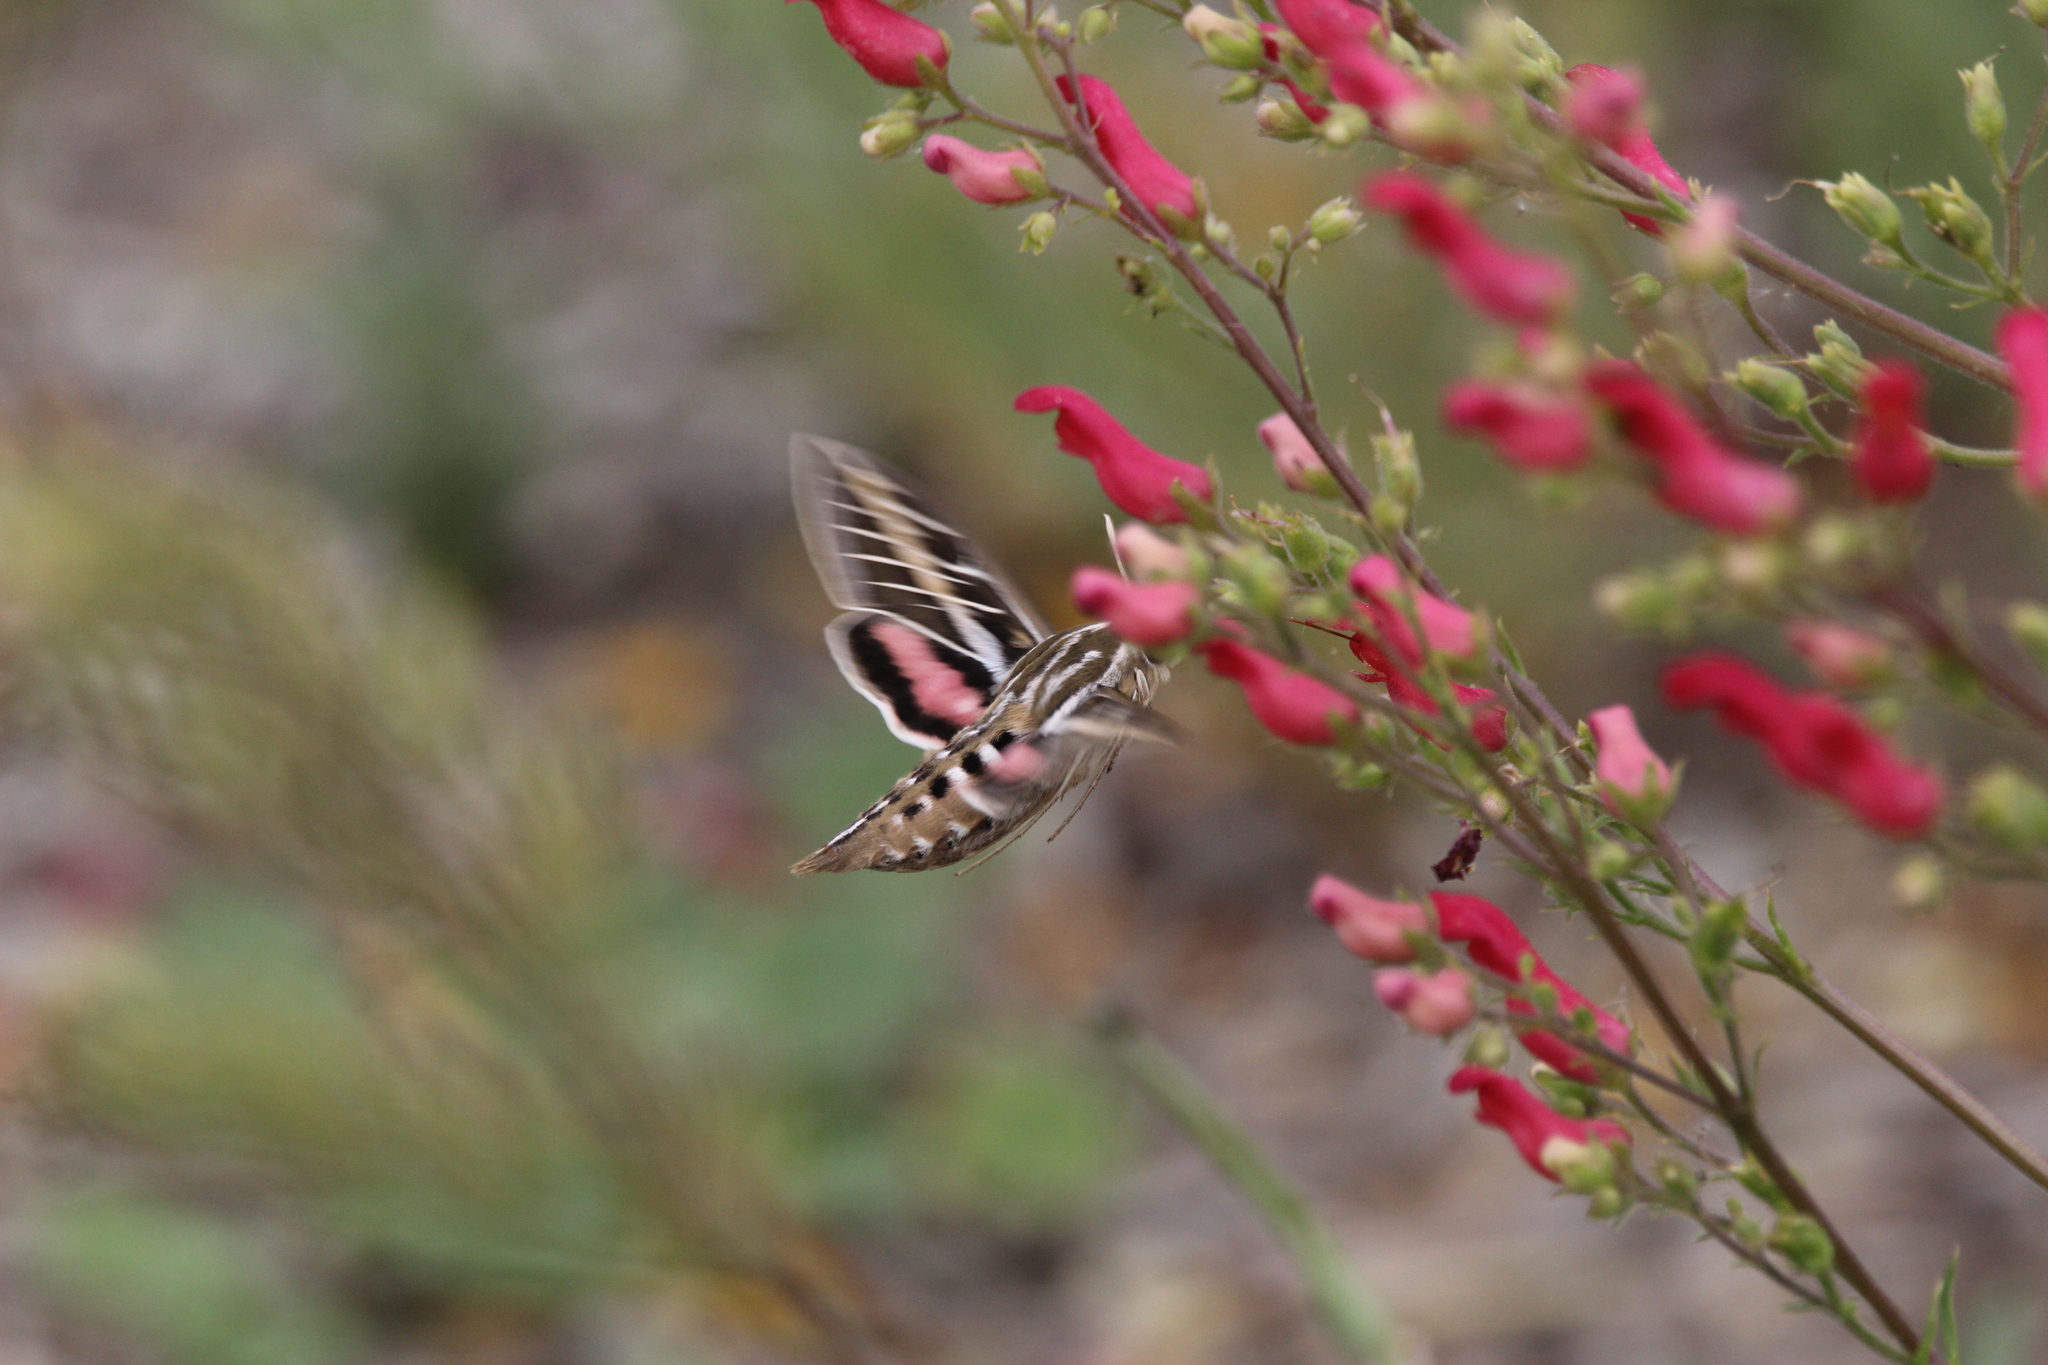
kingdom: Animalia
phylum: Arthropoda
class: Insecta
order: Lepidoptera
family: Sphingidae
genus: Hyles
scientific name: Hyles lineata
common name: White-lined sphinx
